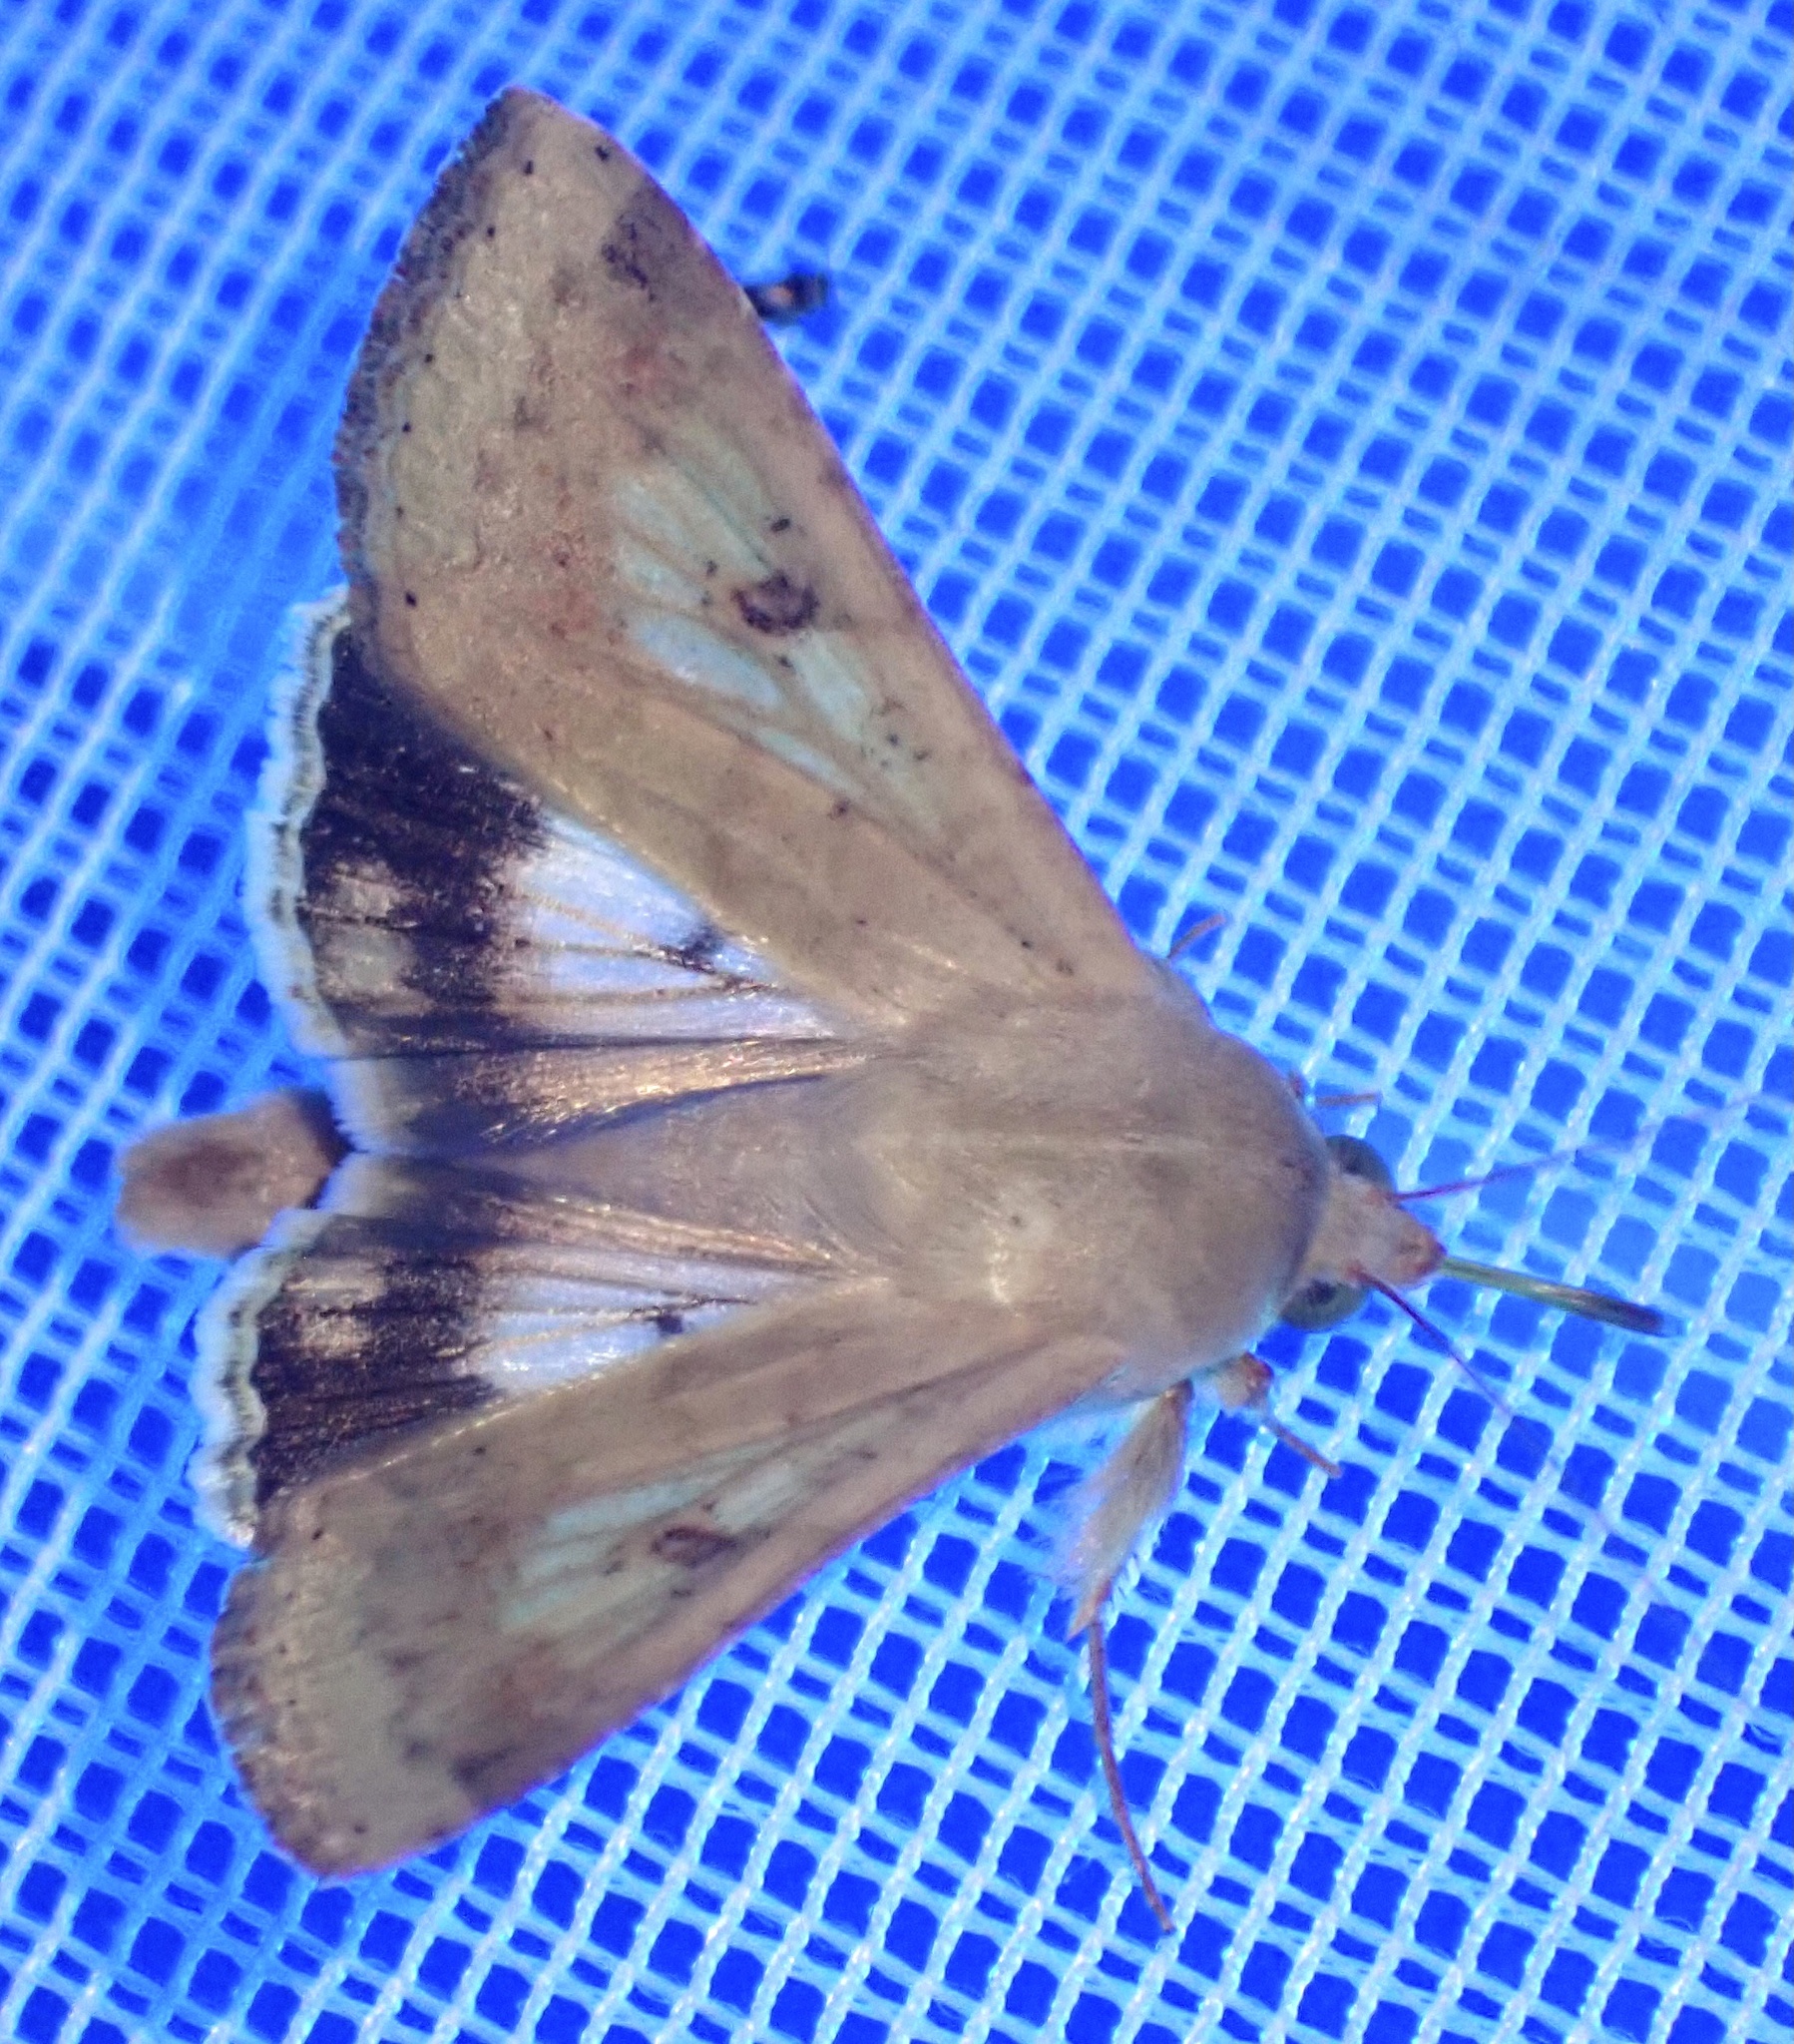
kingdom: Animalia
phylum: Arthropoda
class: Insecta
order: Lepidoptera
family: Noctuidae
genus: Helicoverpa
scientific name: Helicoverpa armigera
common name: Cotton bollworm
